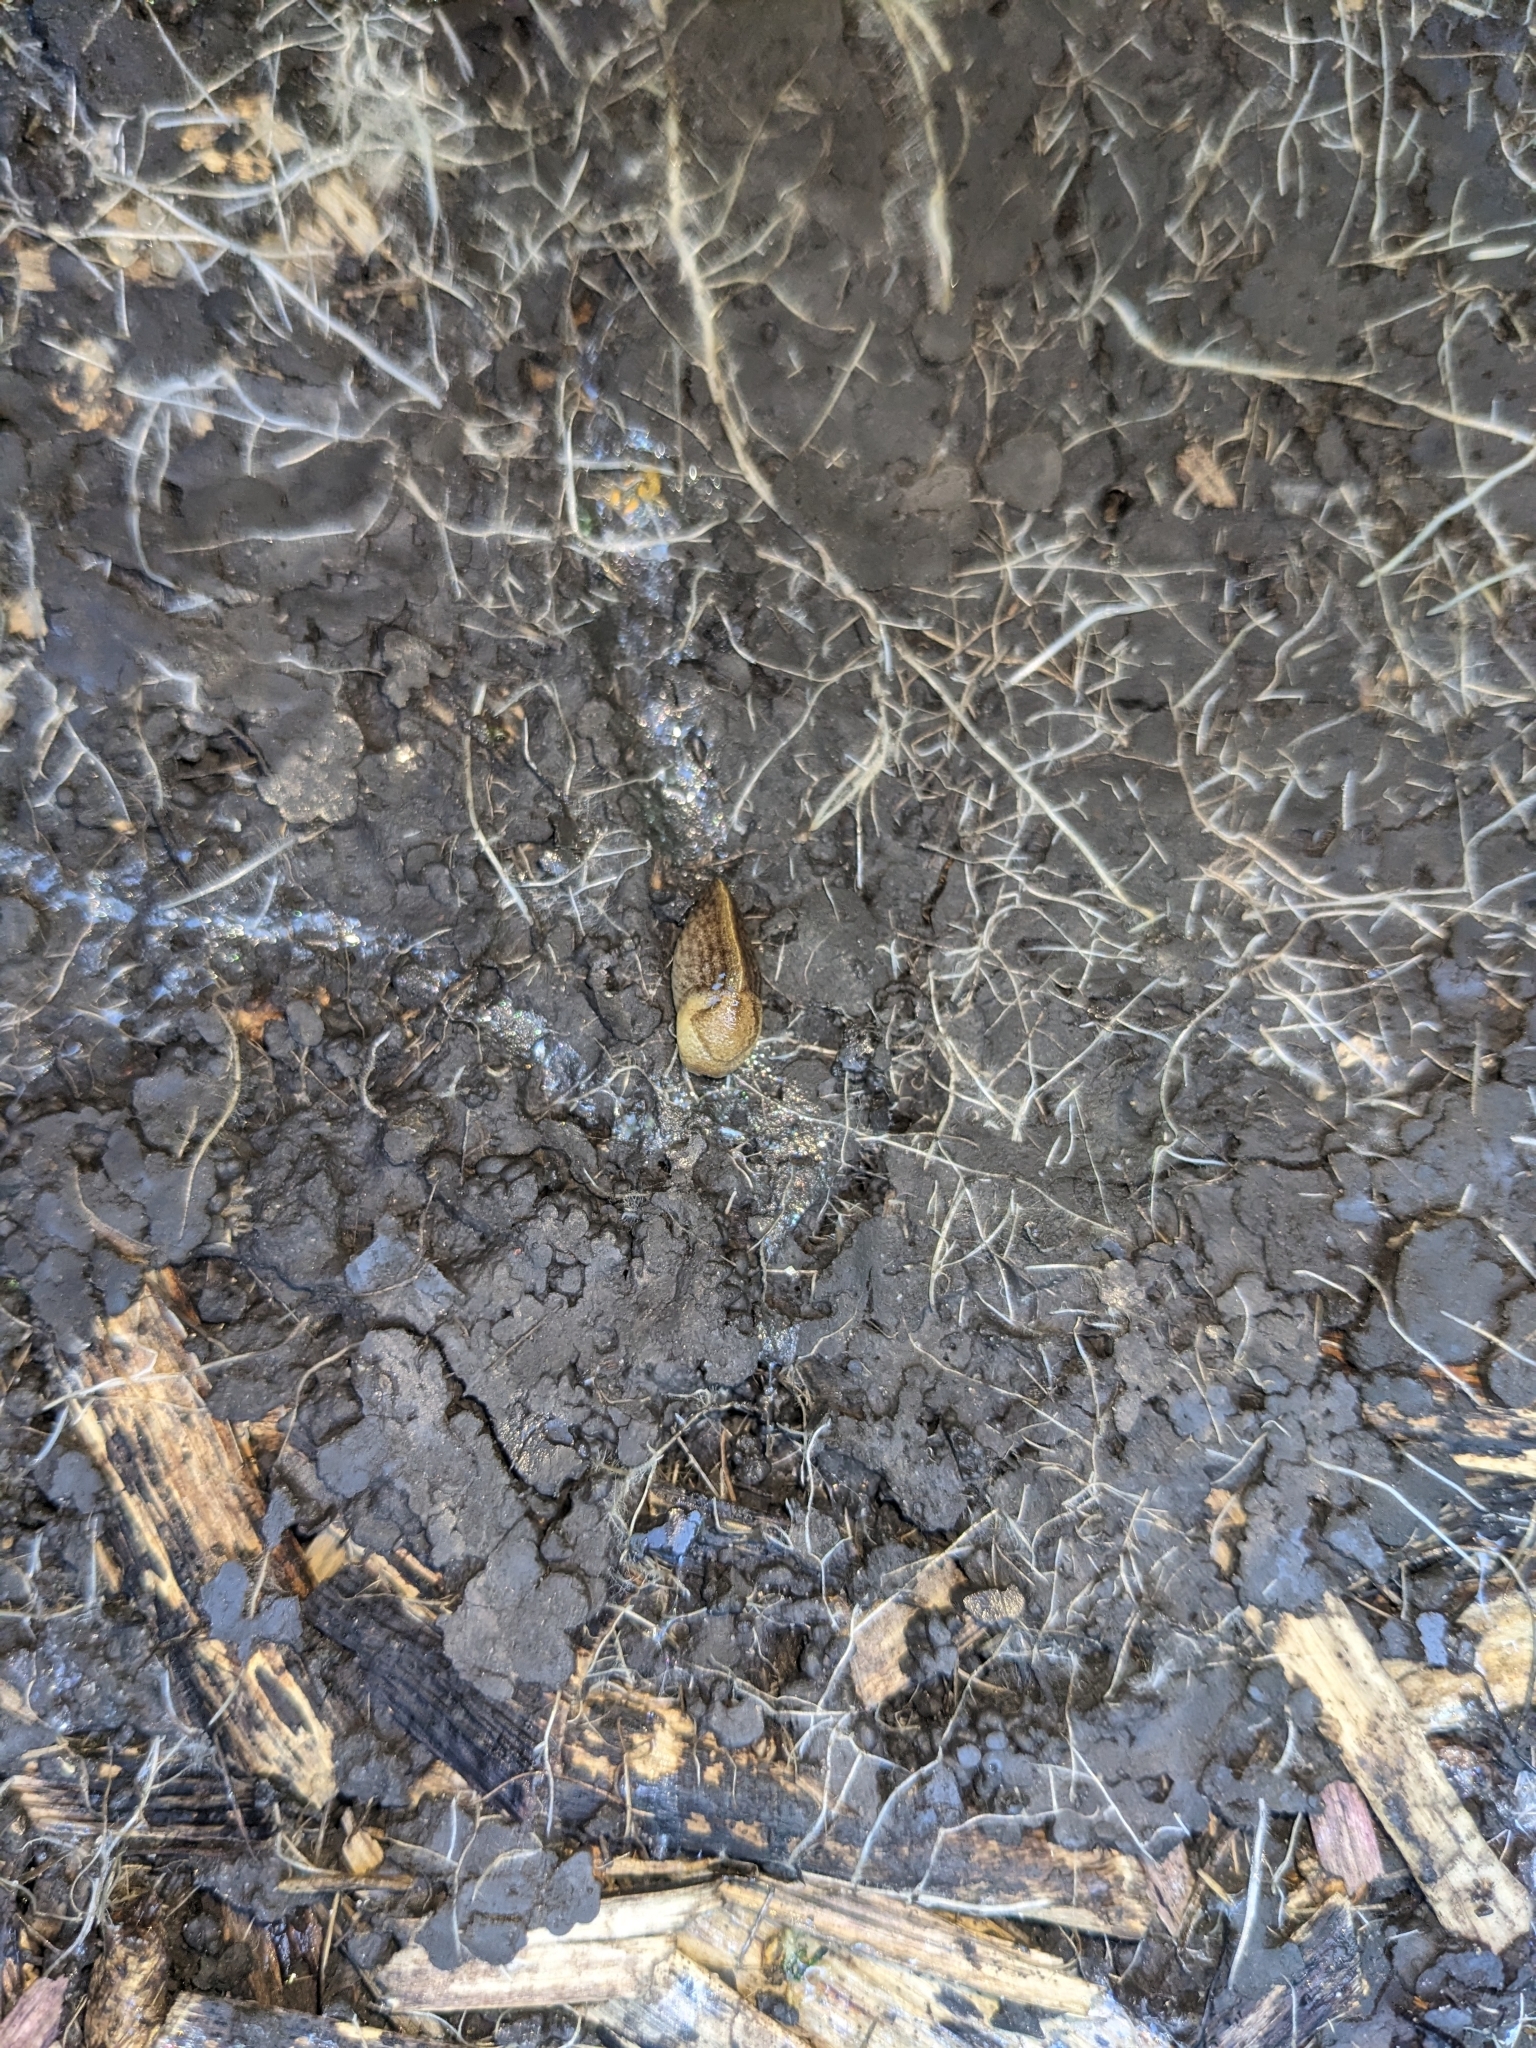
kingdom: Animalia
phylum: Mollusca
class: Gastropoda
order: Stylommatophora
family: Milacidae
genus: Milax
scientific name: Milax gagates
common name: Greenhouse slug
